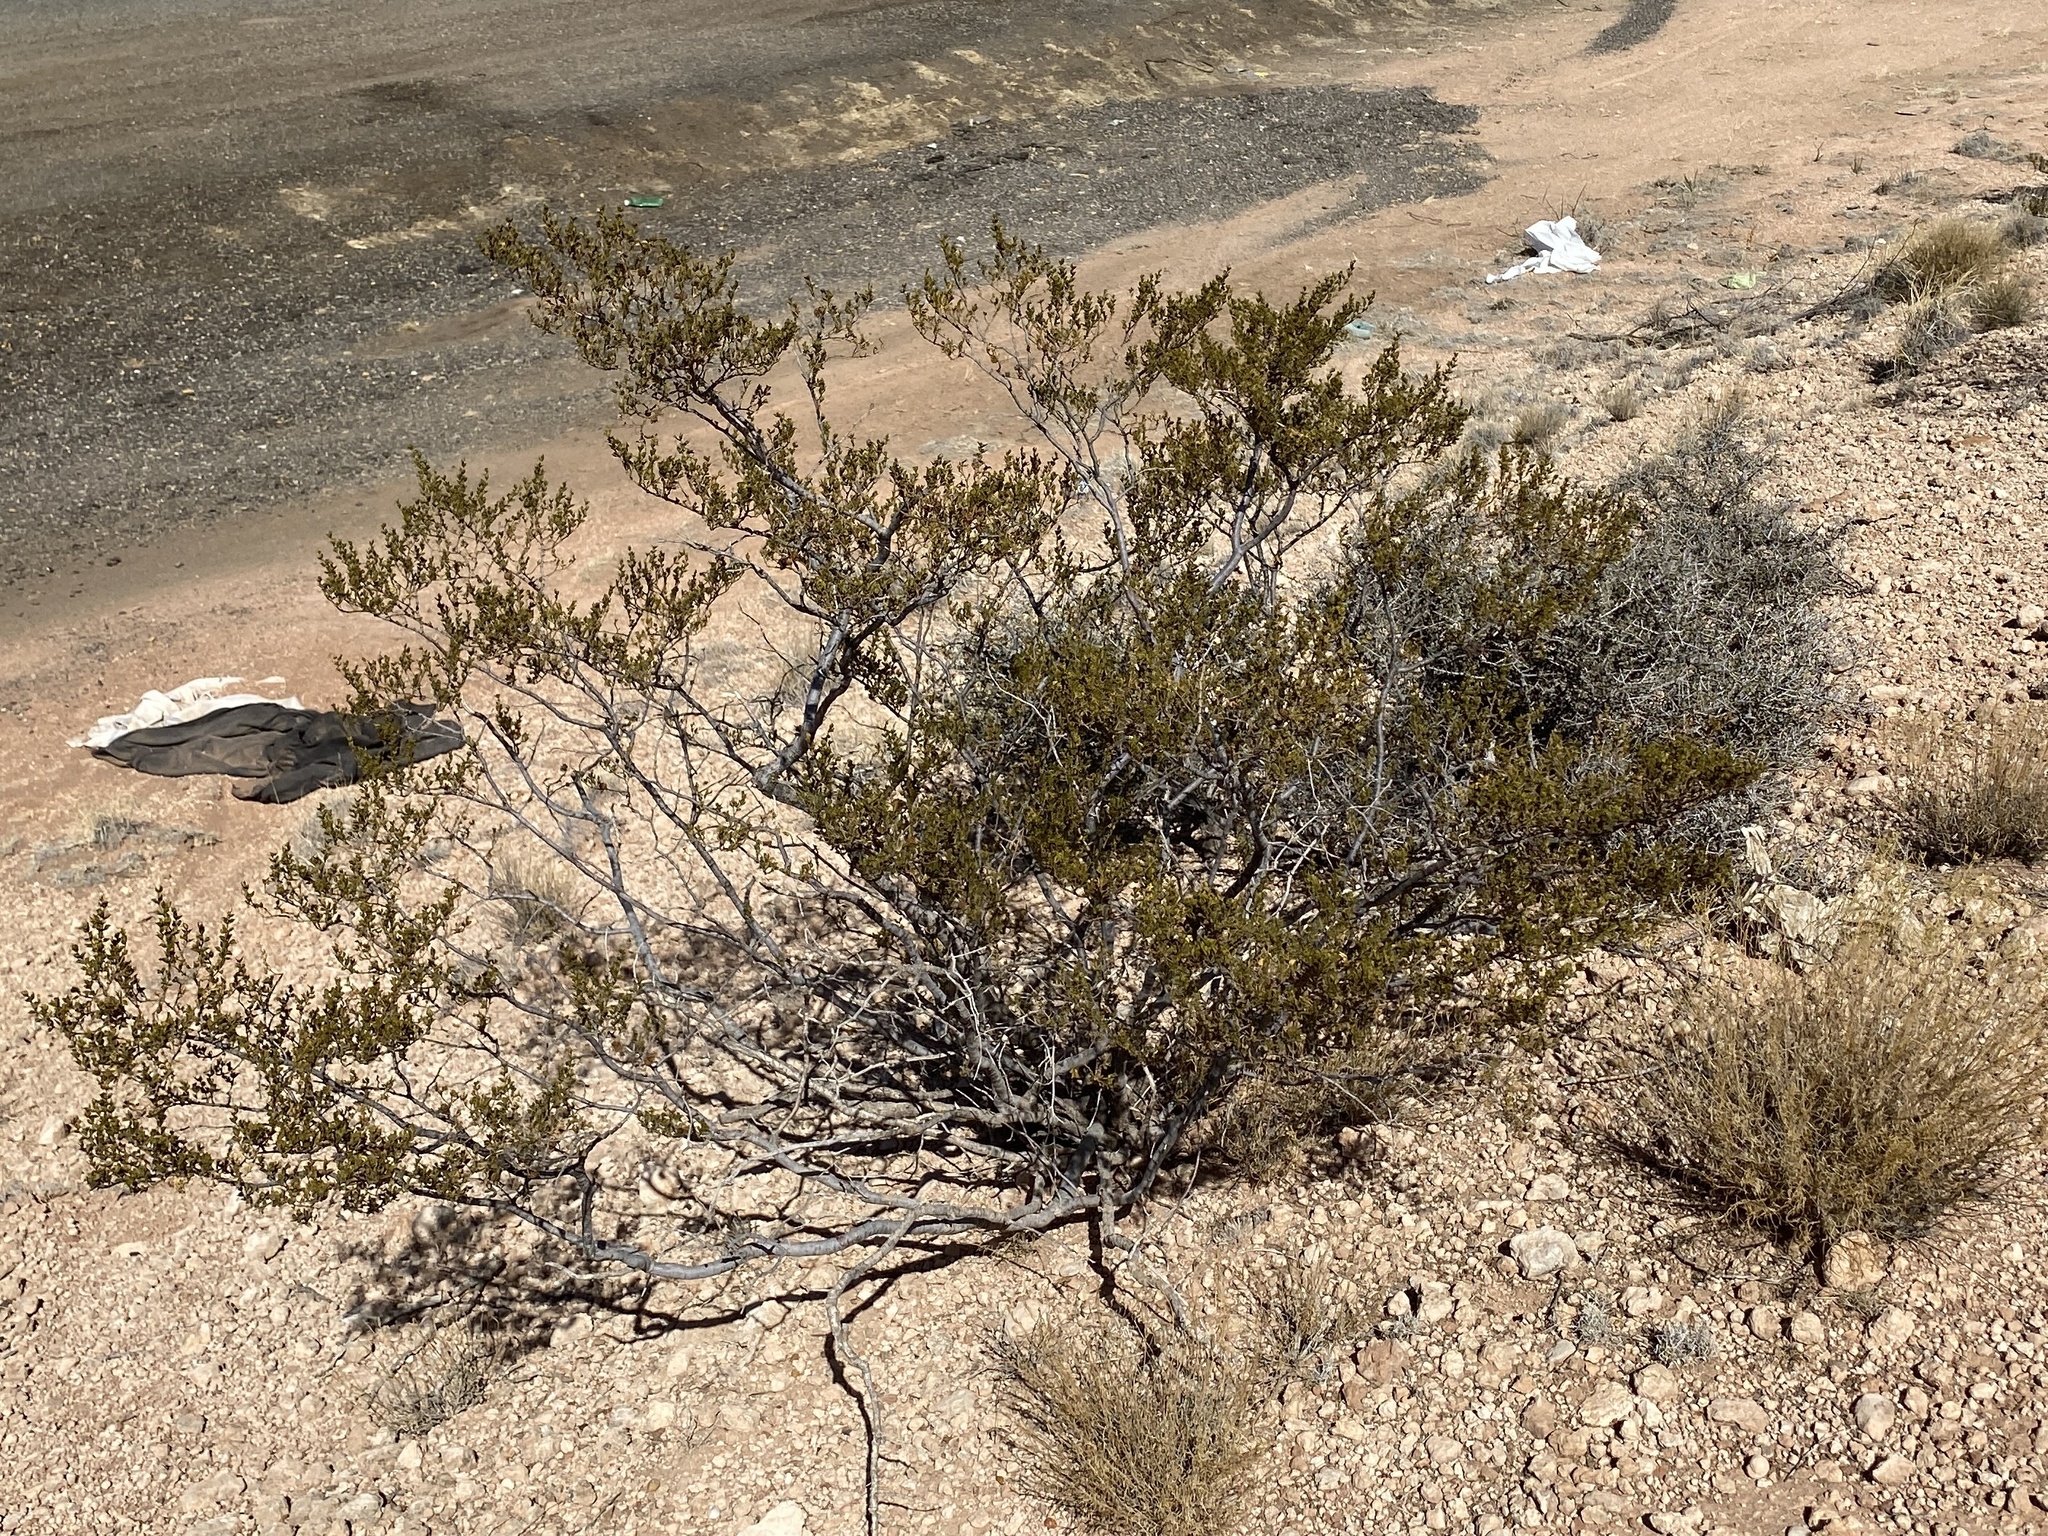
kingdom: Plantae
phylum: Tracheophyta
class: Magnoliopsida
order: Zygophyllales
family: Zygophyllaceae
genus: Larrea
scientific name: Larrea tridentata
